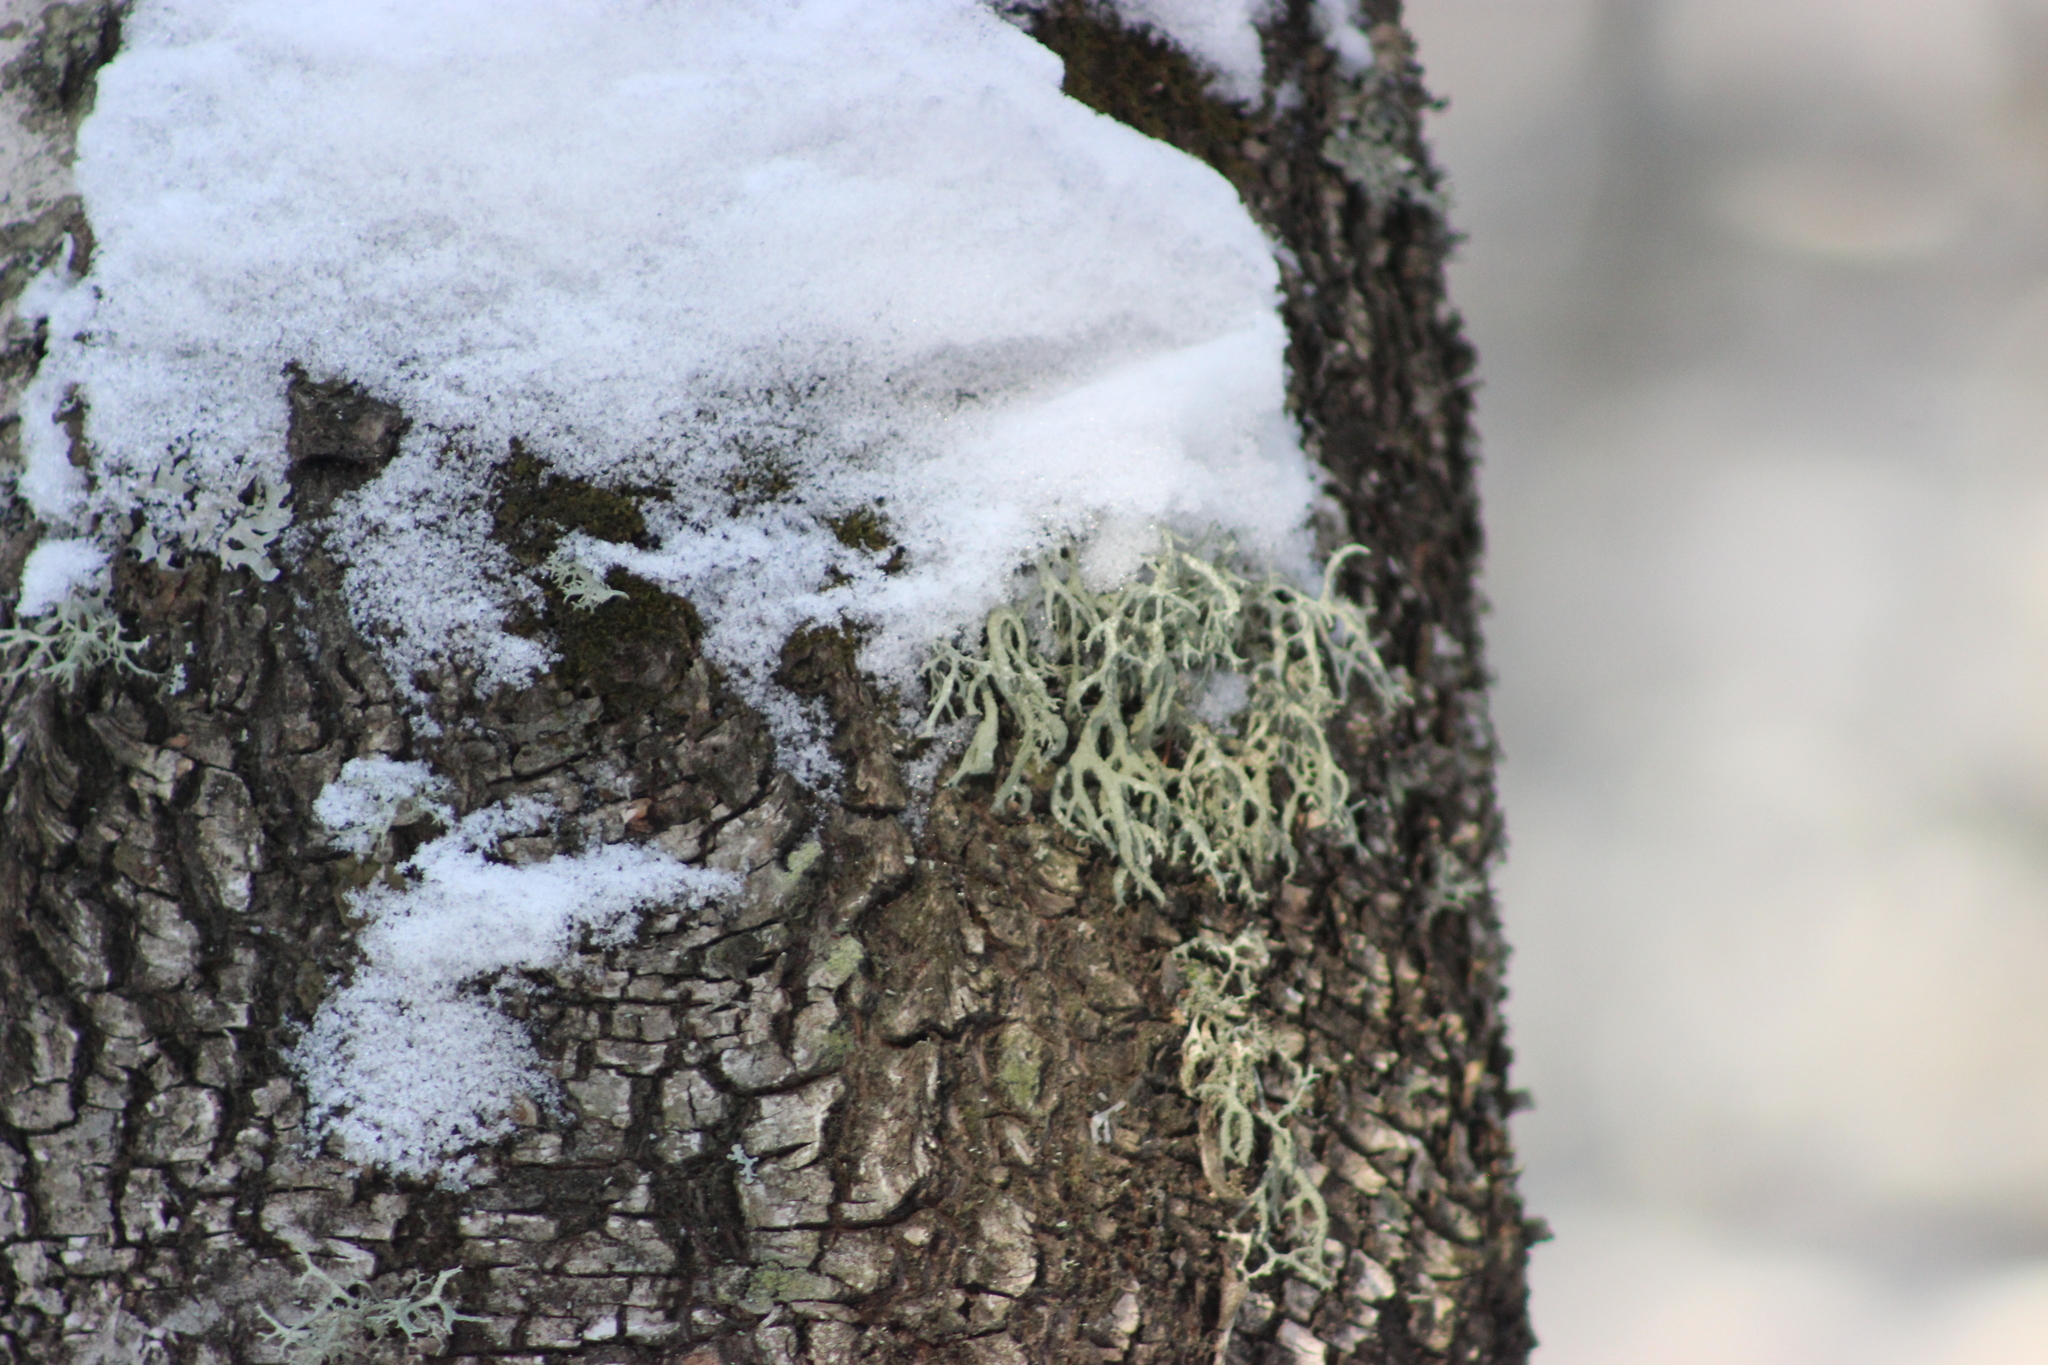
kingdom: Fungi
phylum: Ascomycota
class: Lecanoromycetes
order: Lecanorales
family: Parmeliaceae
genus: Evernia
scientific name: Evernia mesomorpha
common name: Boreal oak moss lichen
